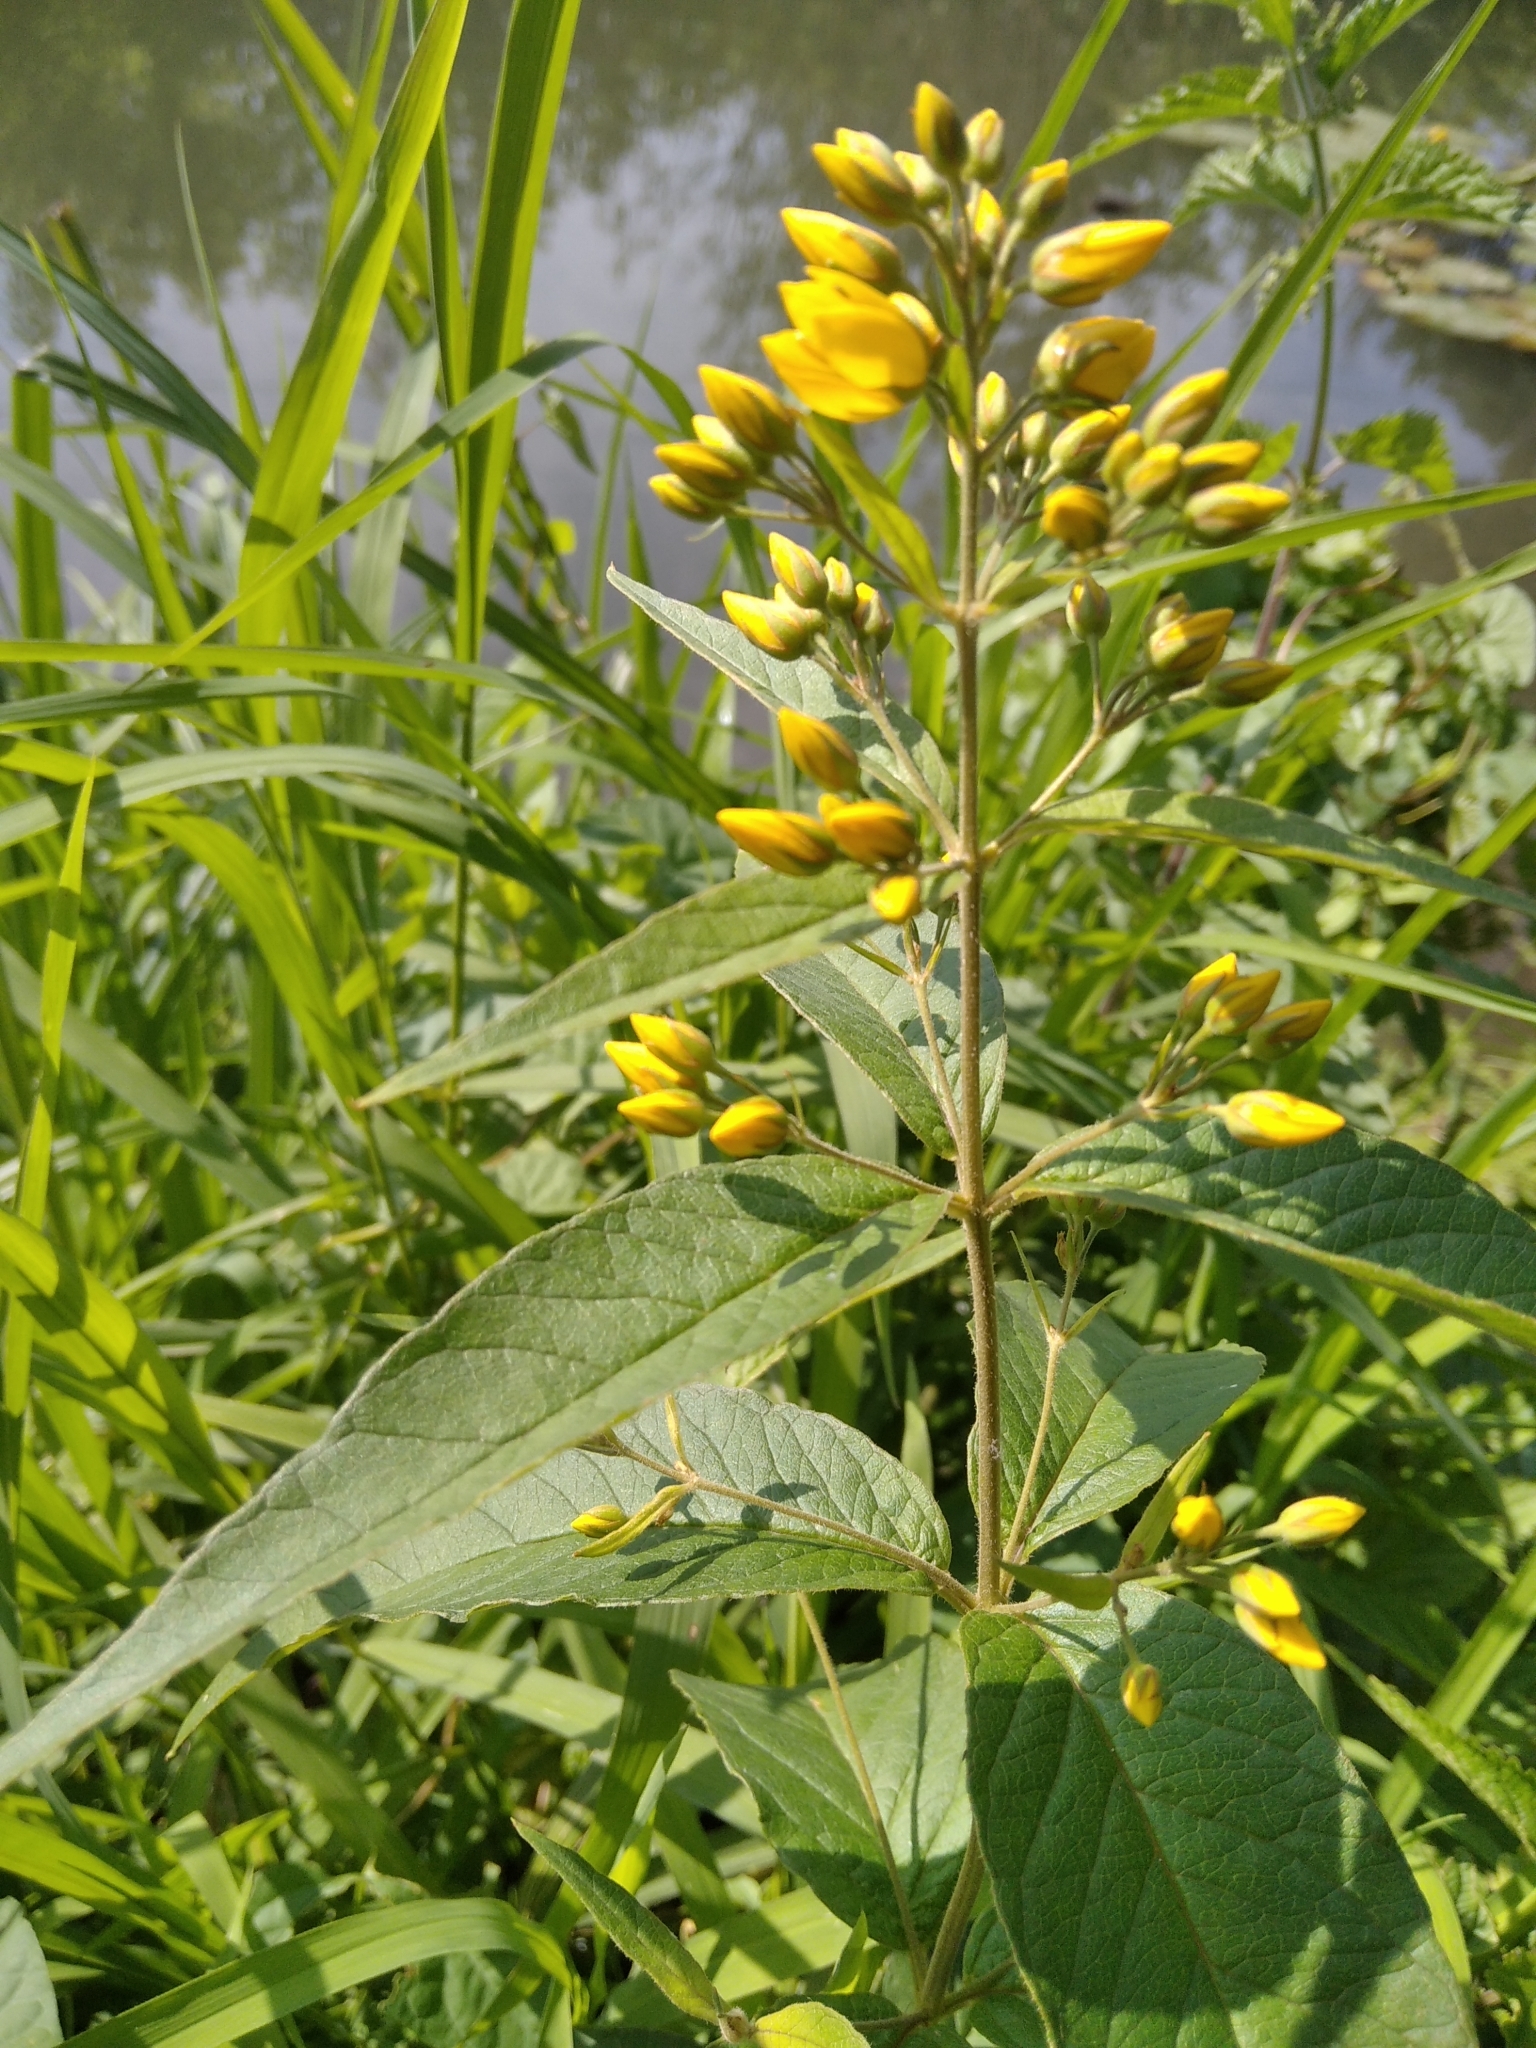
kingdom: Plantae
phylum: Tracheophyta
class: Magnoliopsida
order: Ericales
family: Primulaceae
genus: Lysimachia
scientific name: Lysimachia vulgaris
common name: Yellow loosestrife
